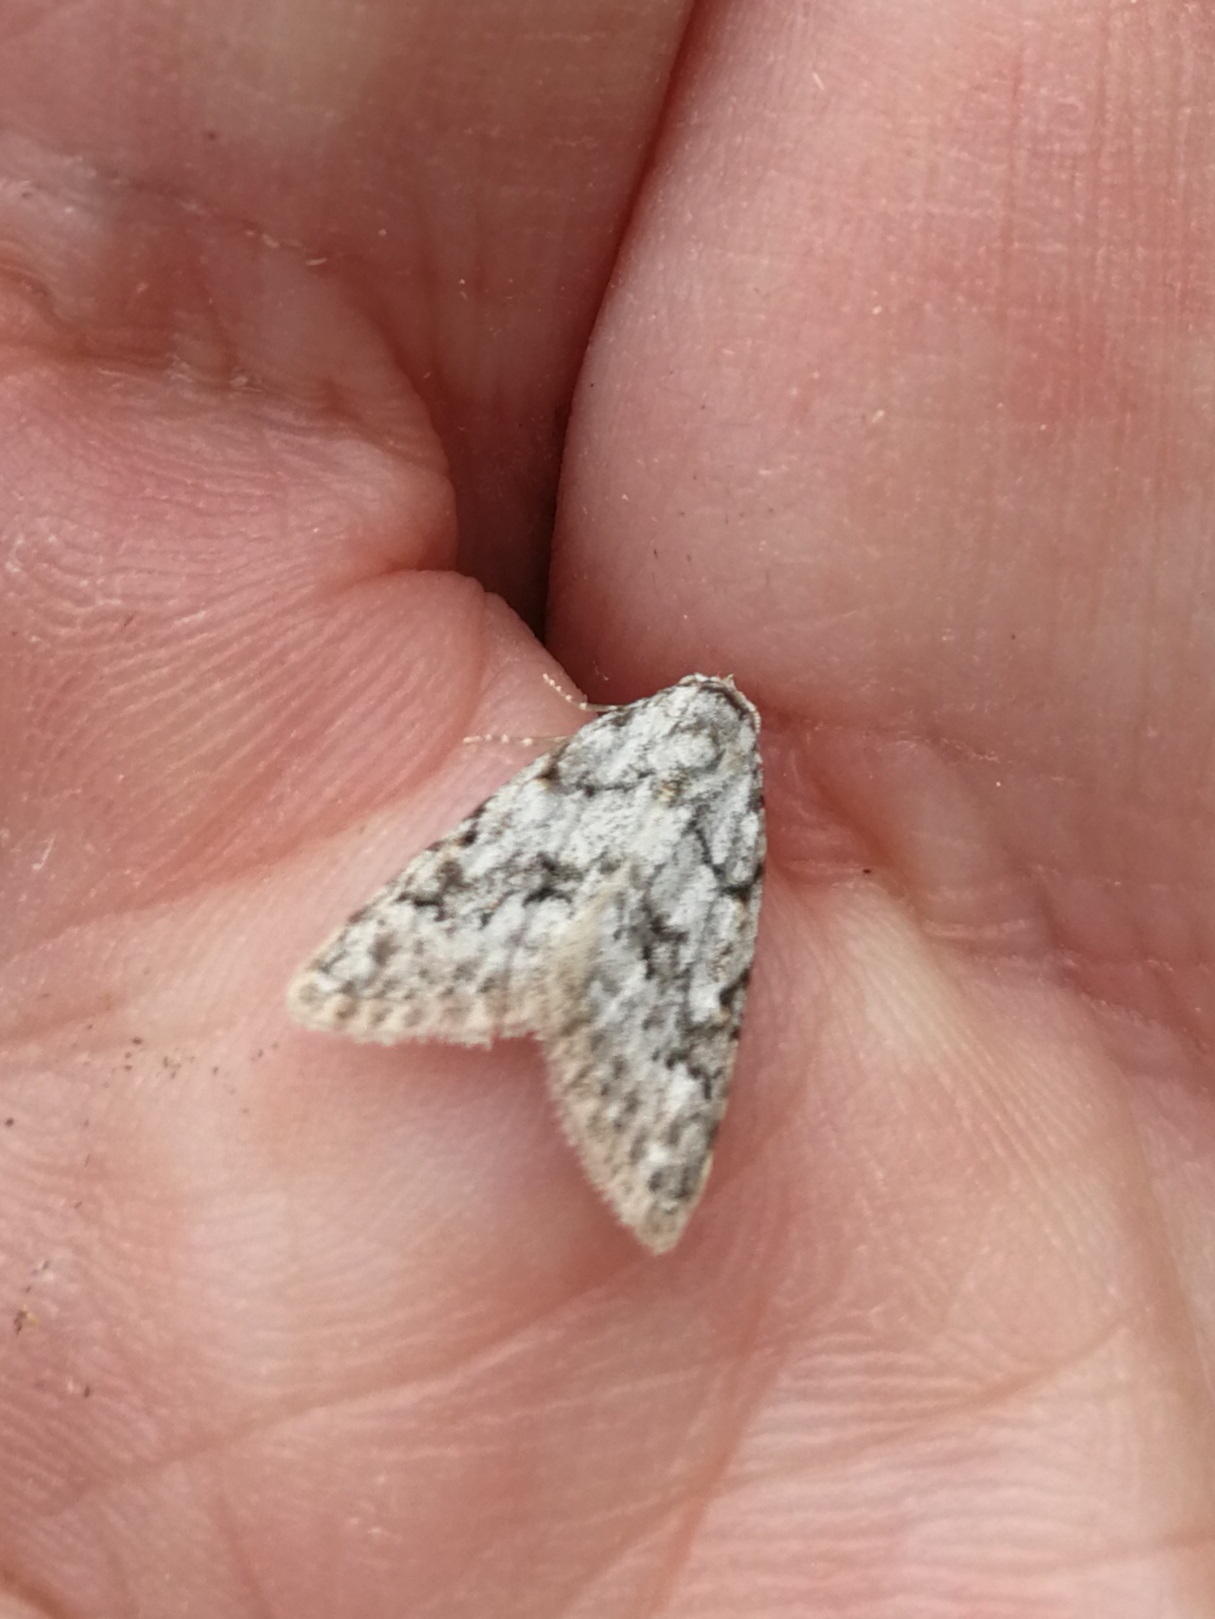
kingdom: Animalia
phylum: Arthropoda
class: Insecta
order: Lepidoptera
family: Nolidae
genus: Nola
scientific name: Nola cicatricalis
